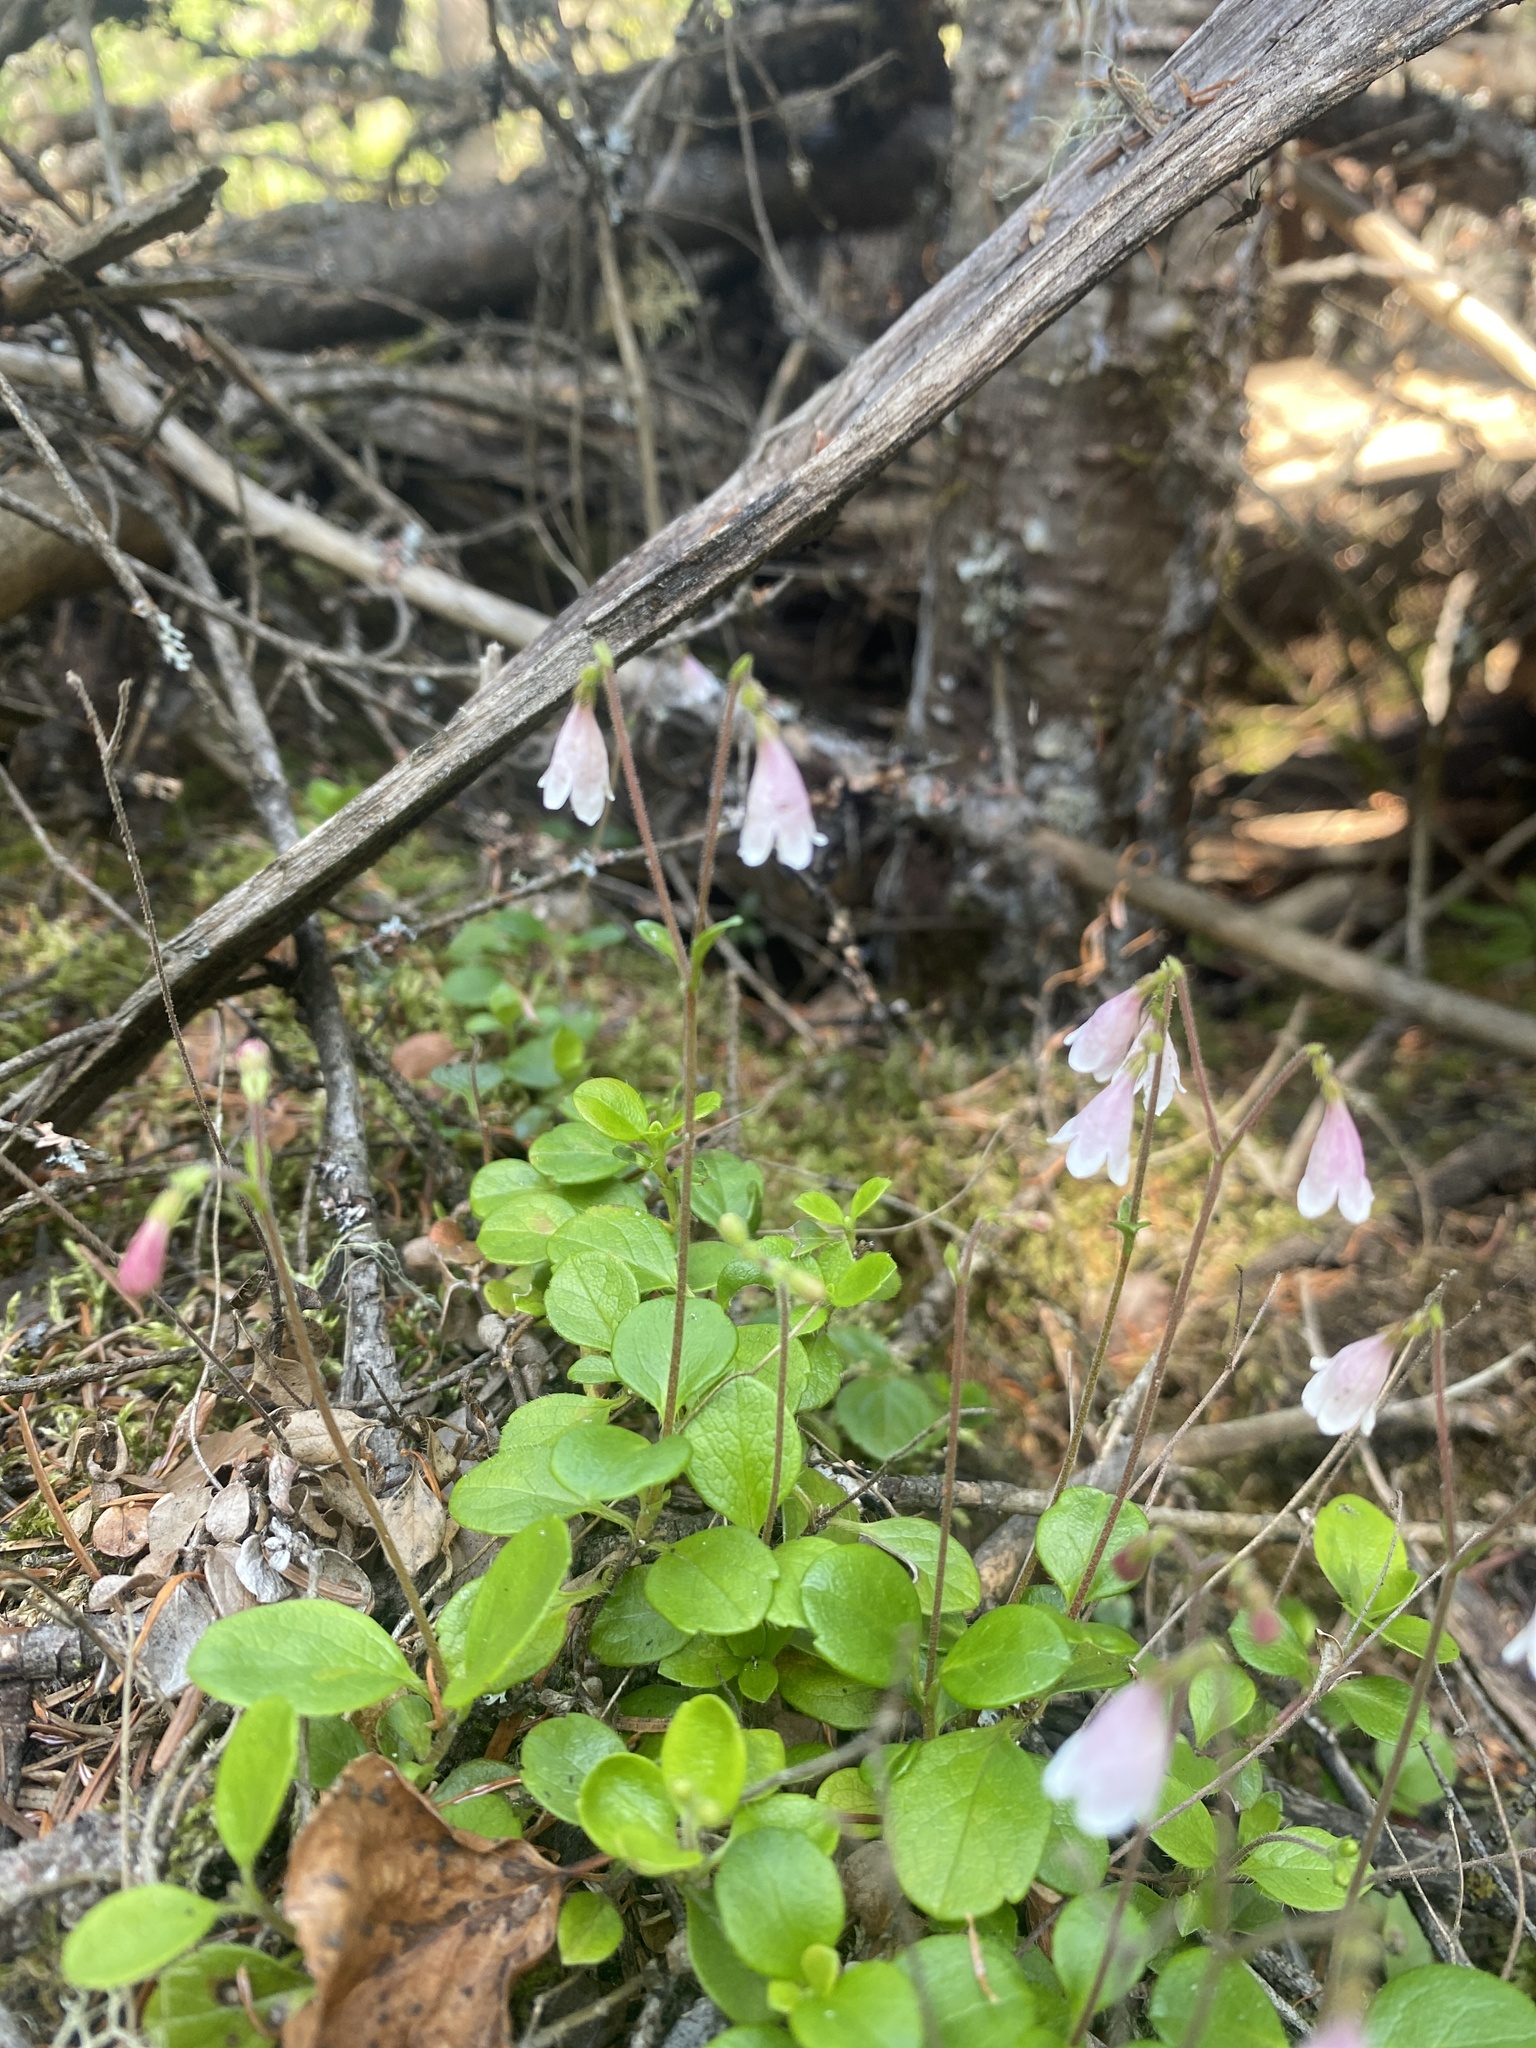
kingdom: Plantae
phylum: Tracheophyta
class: Magnoliopsida
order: Dipsacales
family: Caprifoliaceae
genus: Linnaea
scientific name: Linnaea borealis
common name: Twinflower
